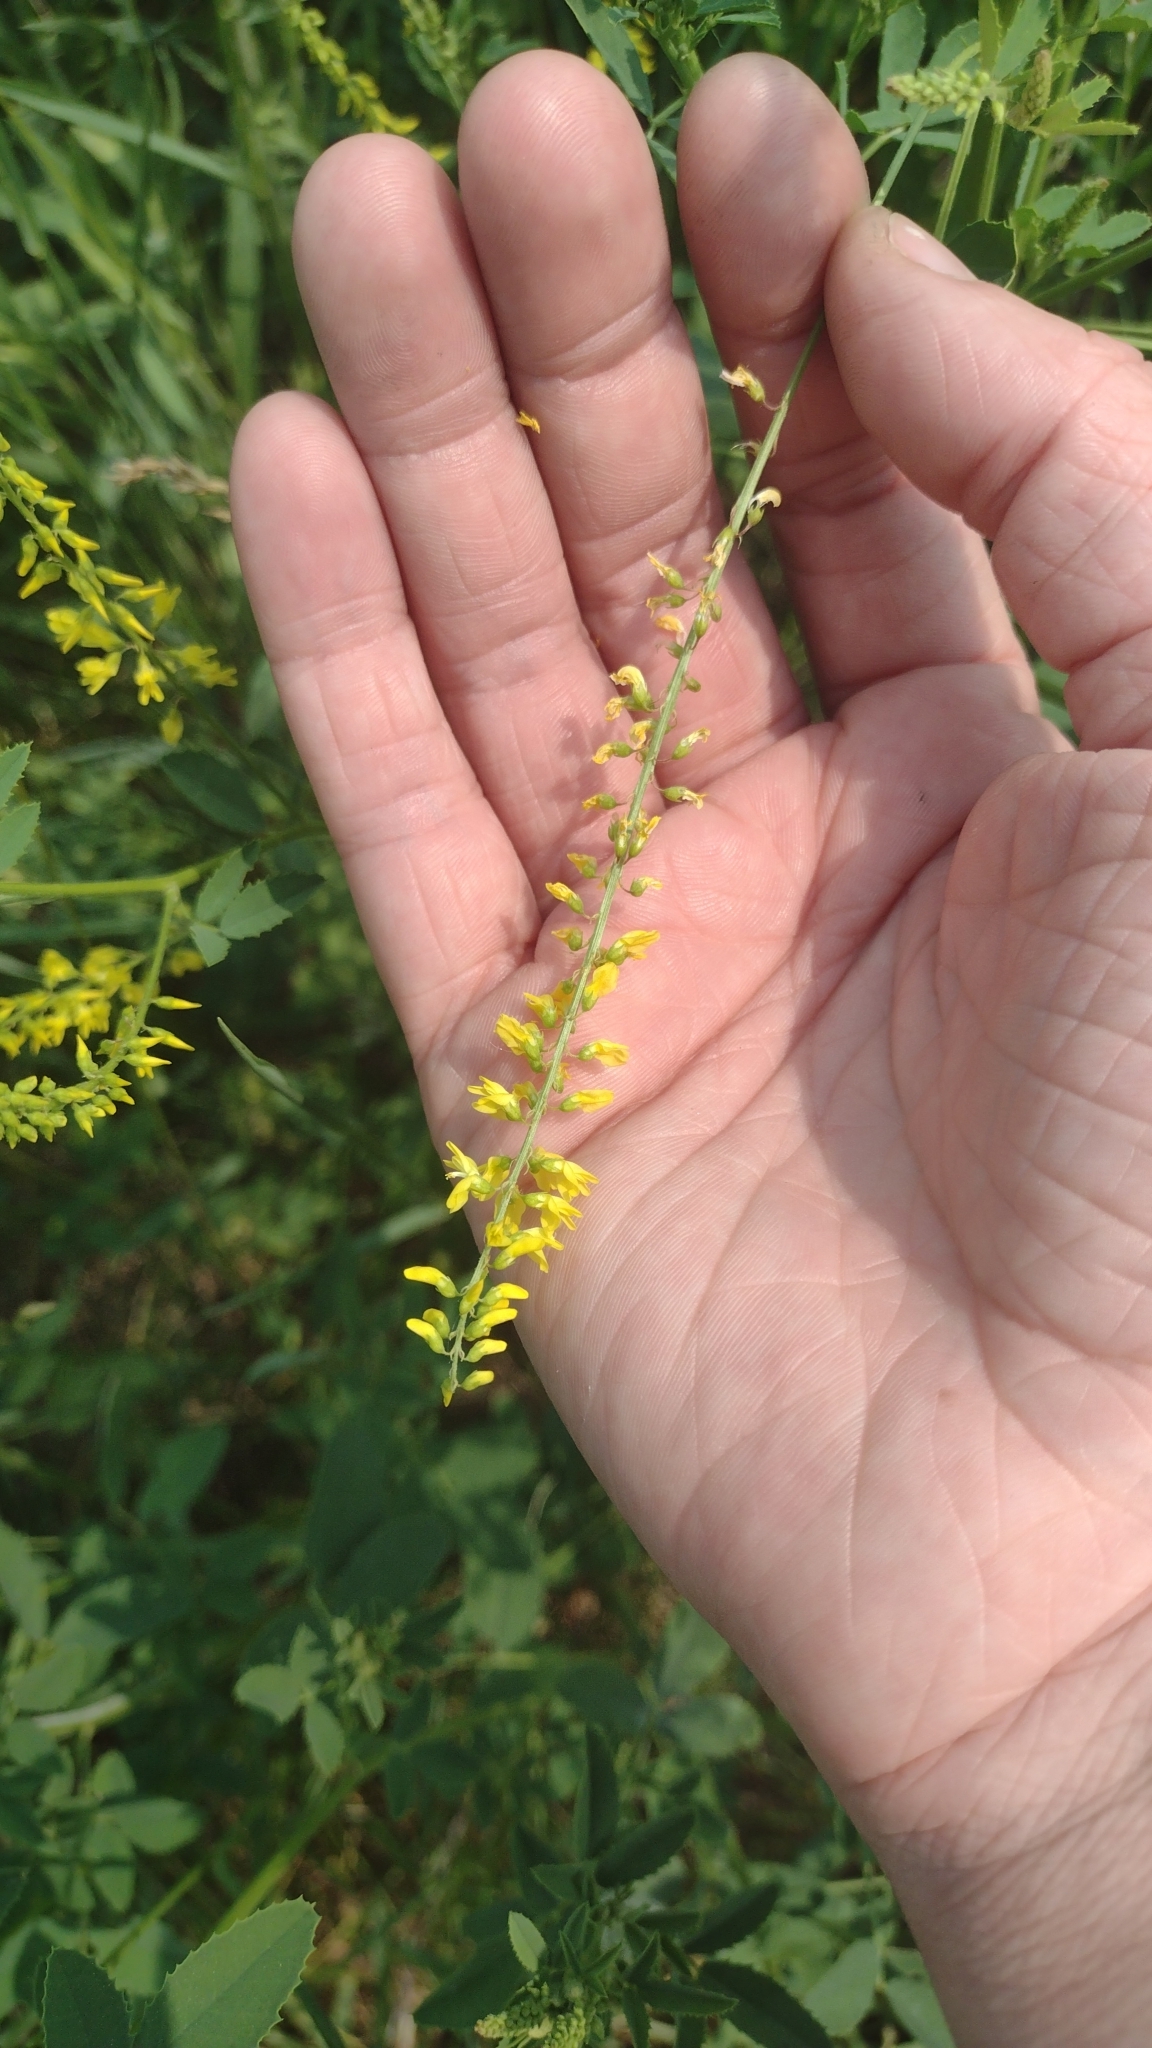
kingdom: Plantae
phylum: Tracheophyta
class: Magnoliopsida
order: Fabales
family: Fabaceae
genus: Melilotus
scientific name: Melilotus officinalis
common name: Sweetclover
